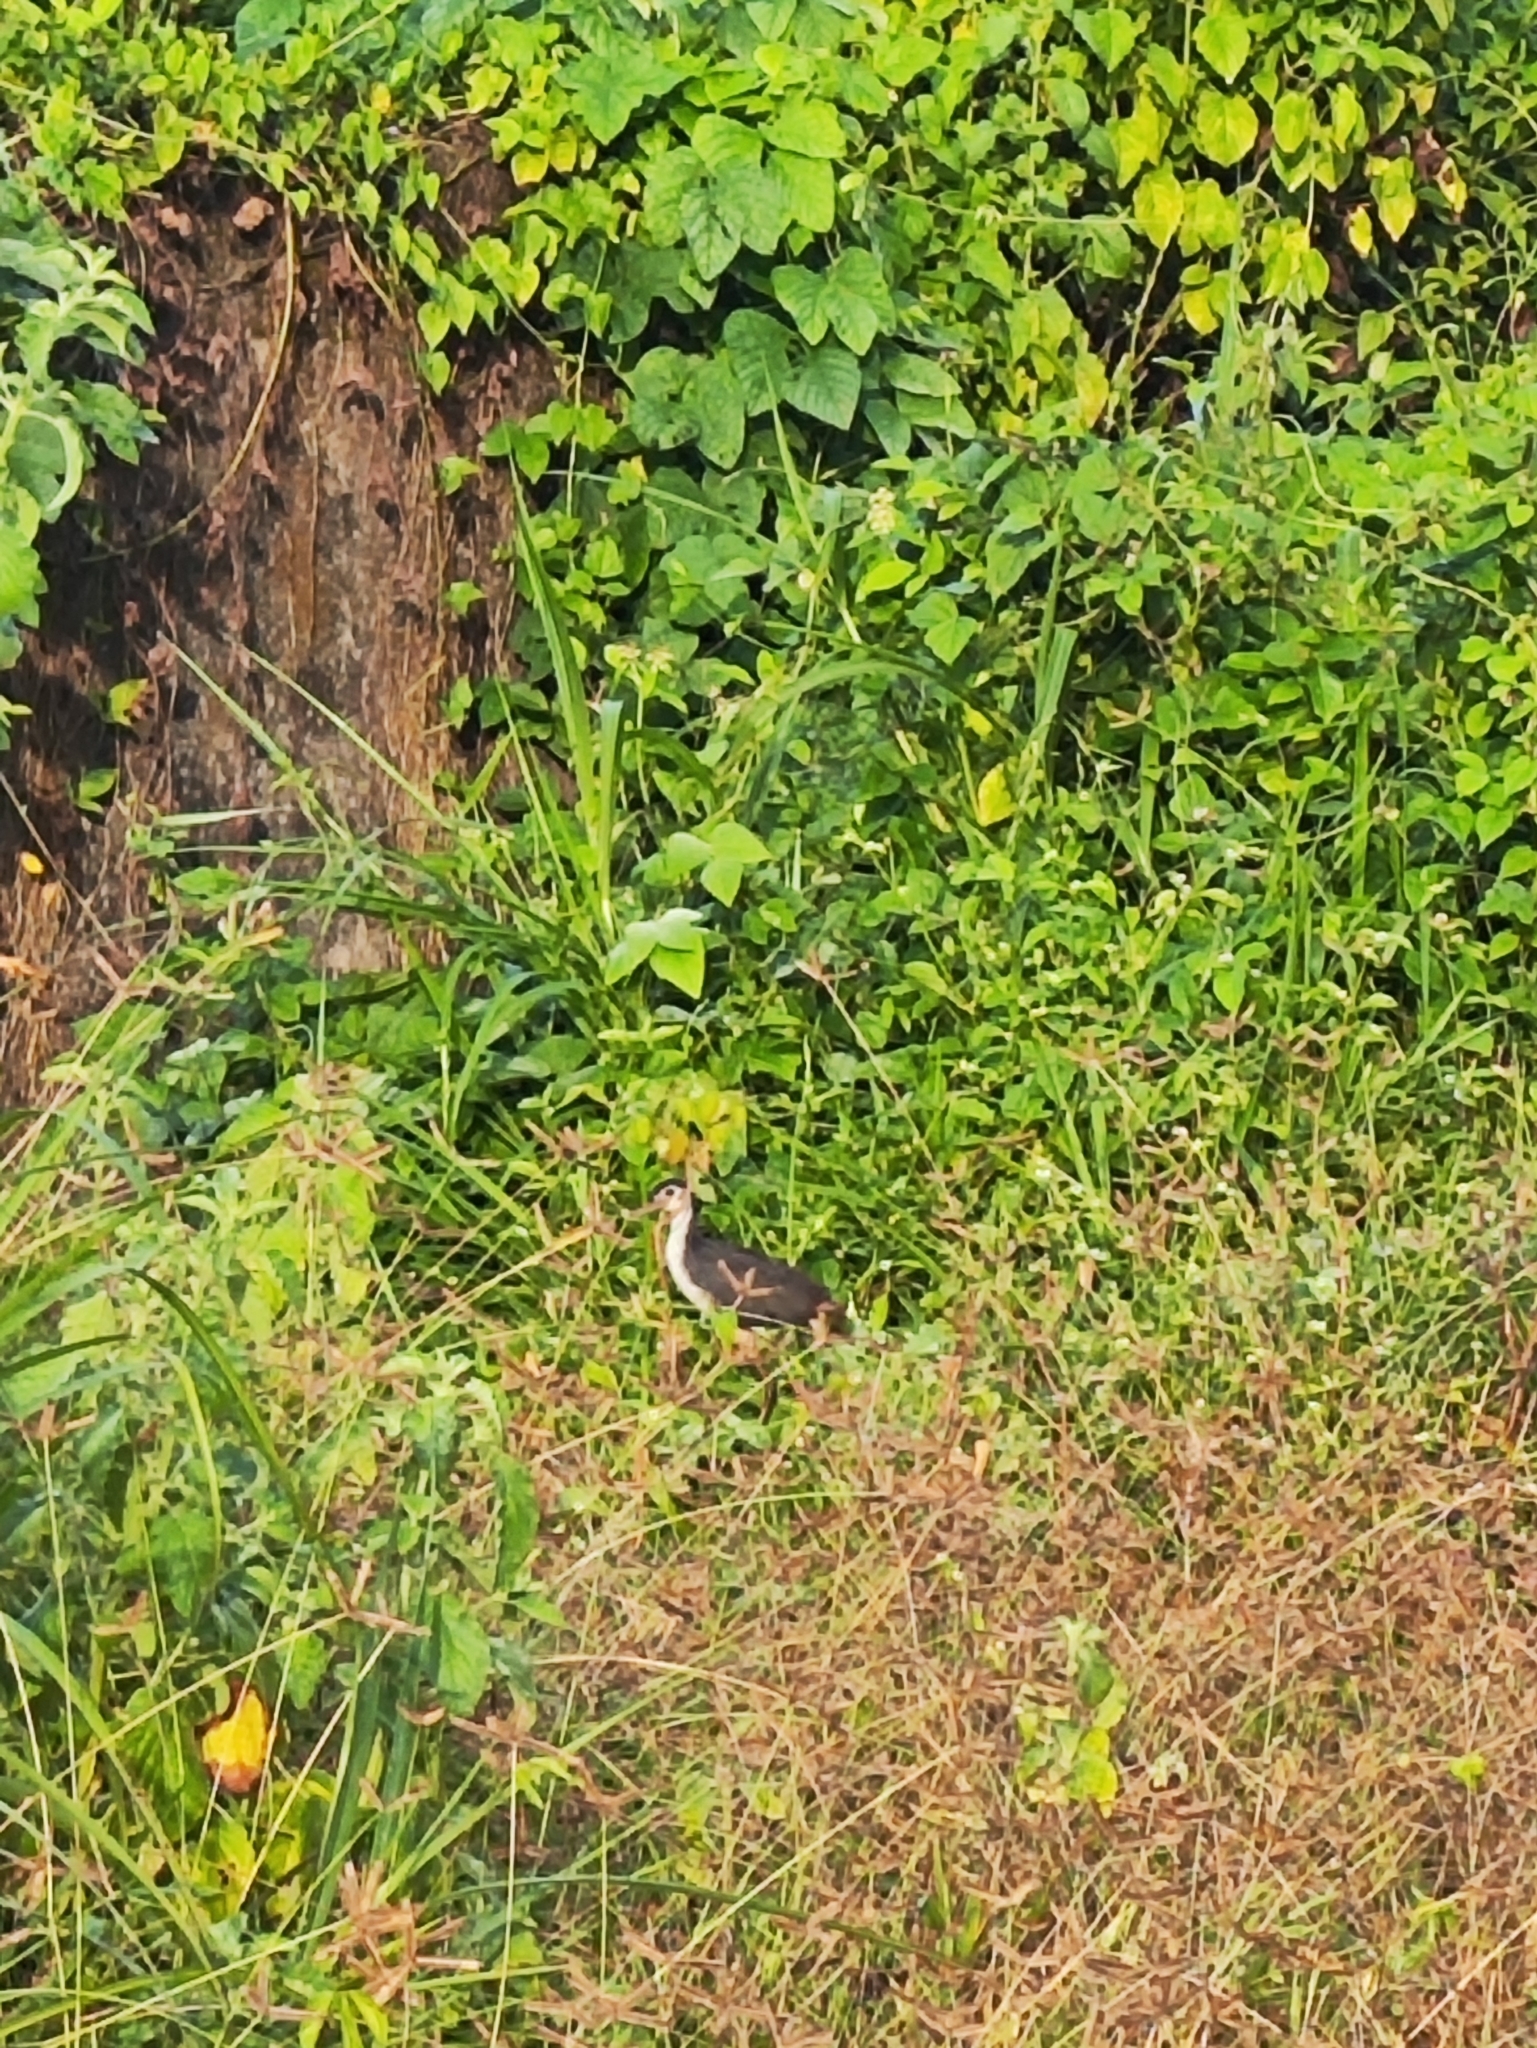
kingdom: Animalia
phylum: Chordata
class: Aves
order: Gruiformes
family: Rallidae
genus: Amaurornis
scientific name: Amaurornis phoenicurus
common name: White-breasted waterhen
